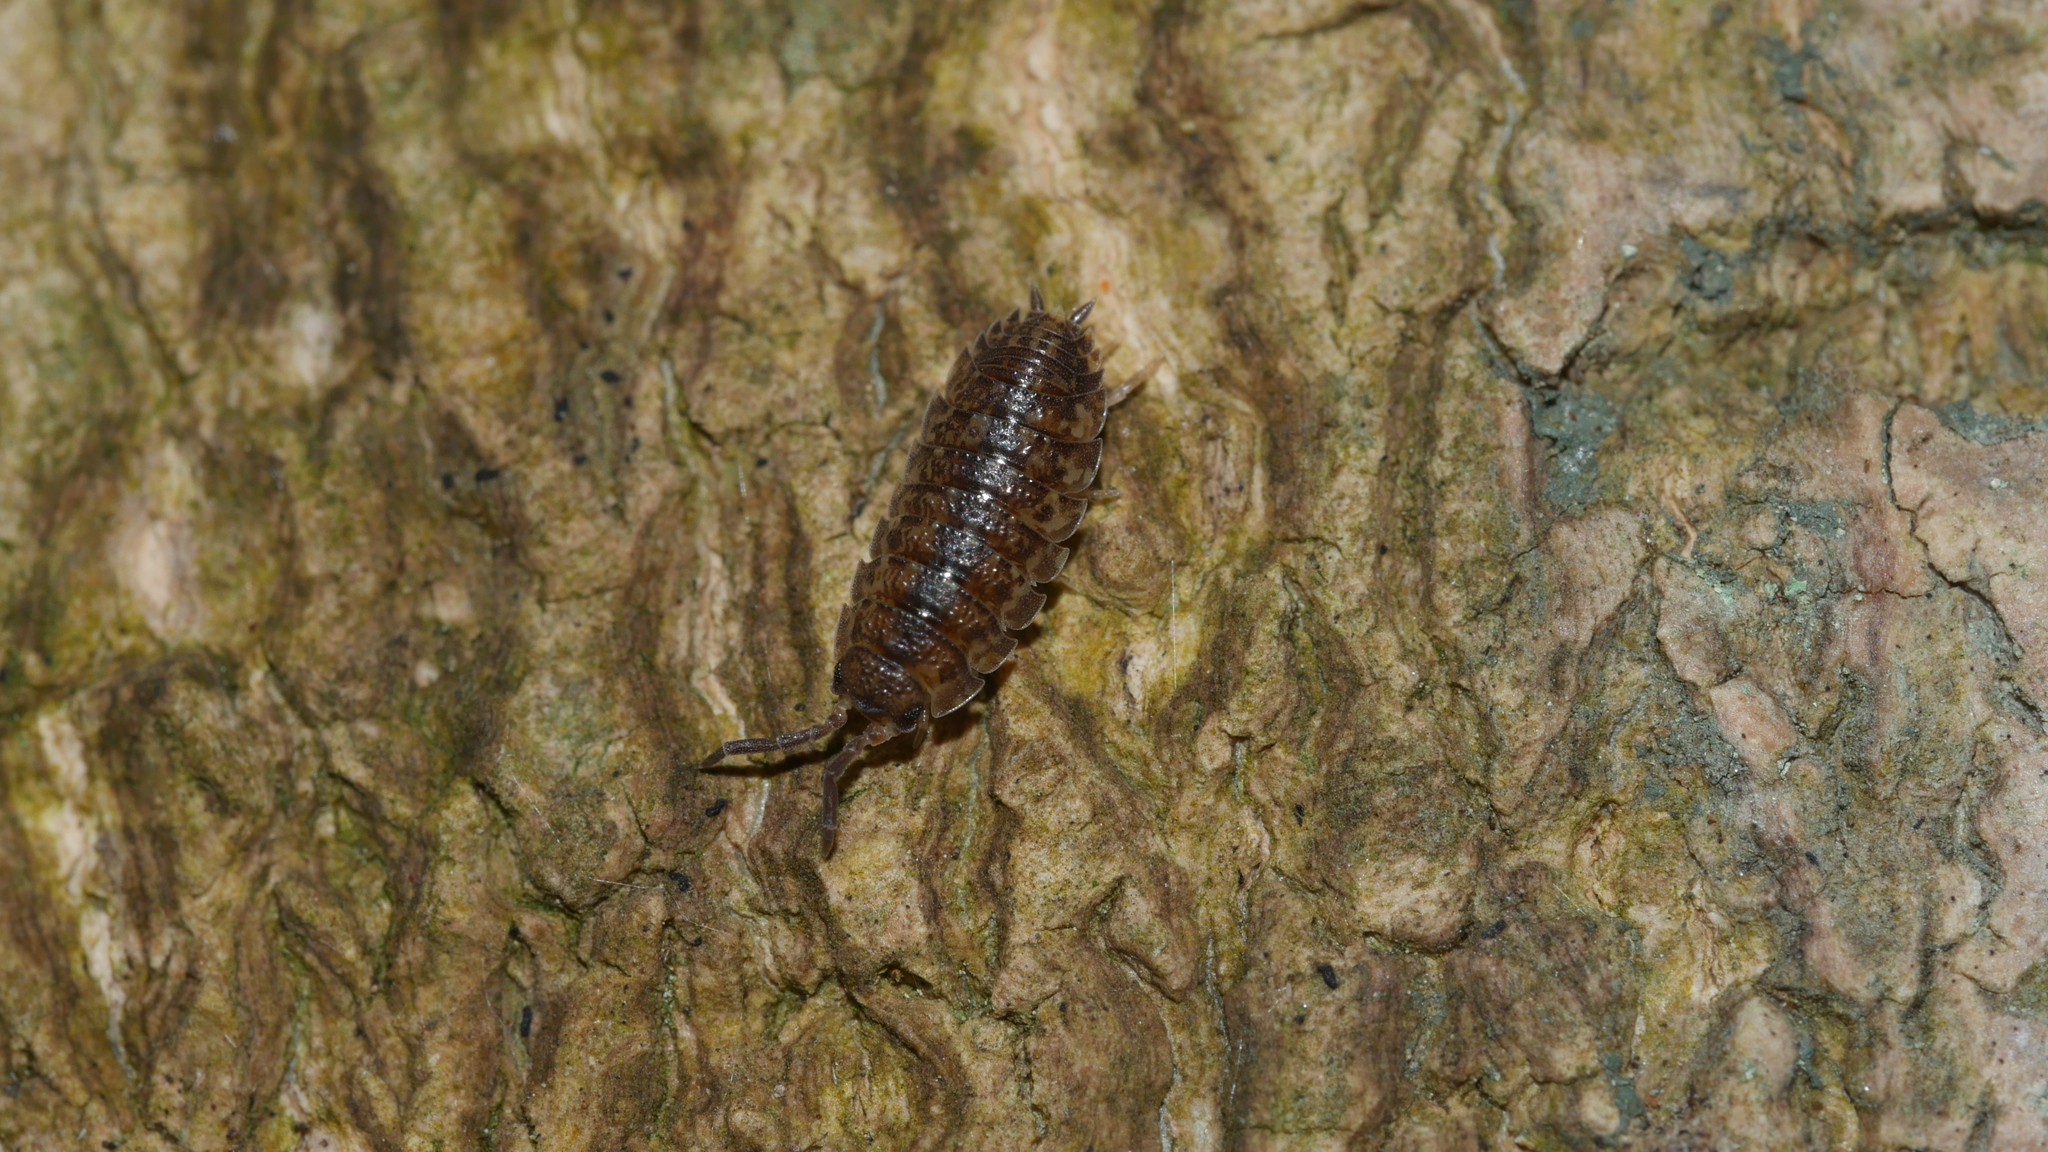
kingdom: Animalia
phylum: Arthropoda
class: Malacostraca
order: Isopoda
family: Porcellionidae
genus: Porcellio
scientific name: Porcellio scaber
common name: Common rough woodlouse
